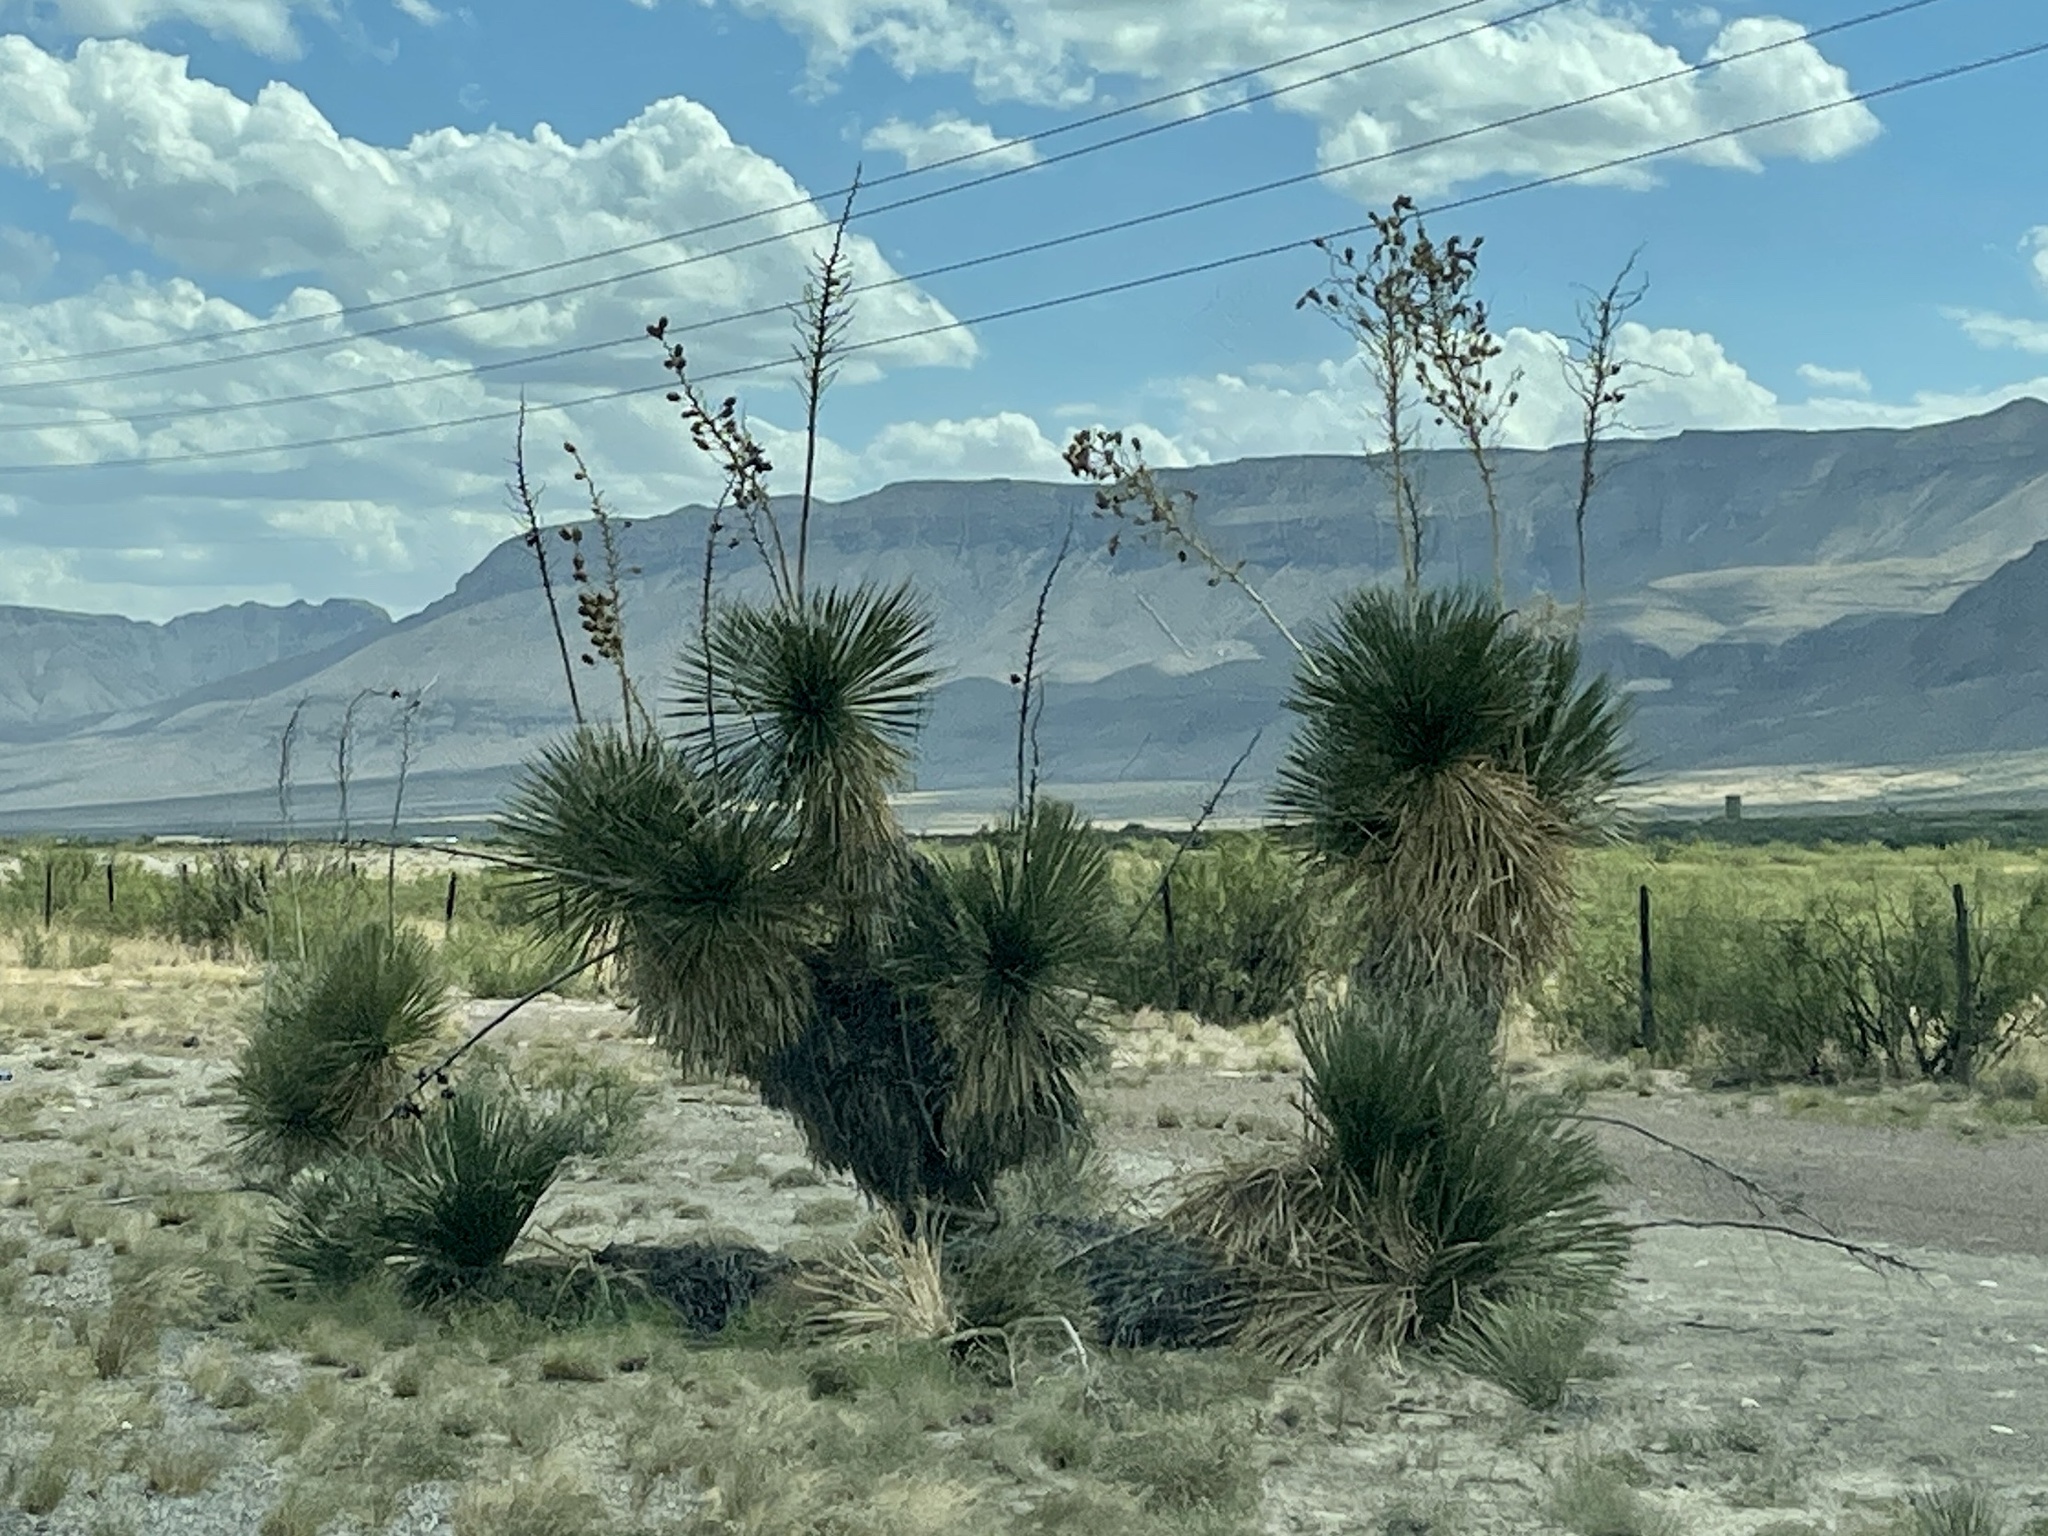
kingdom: Plantae
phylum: Tracheophyta
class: Liliopsida
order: Asparagales
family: Asparagaceae
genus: Yucca
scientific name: Yucca elata
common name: Palmella
